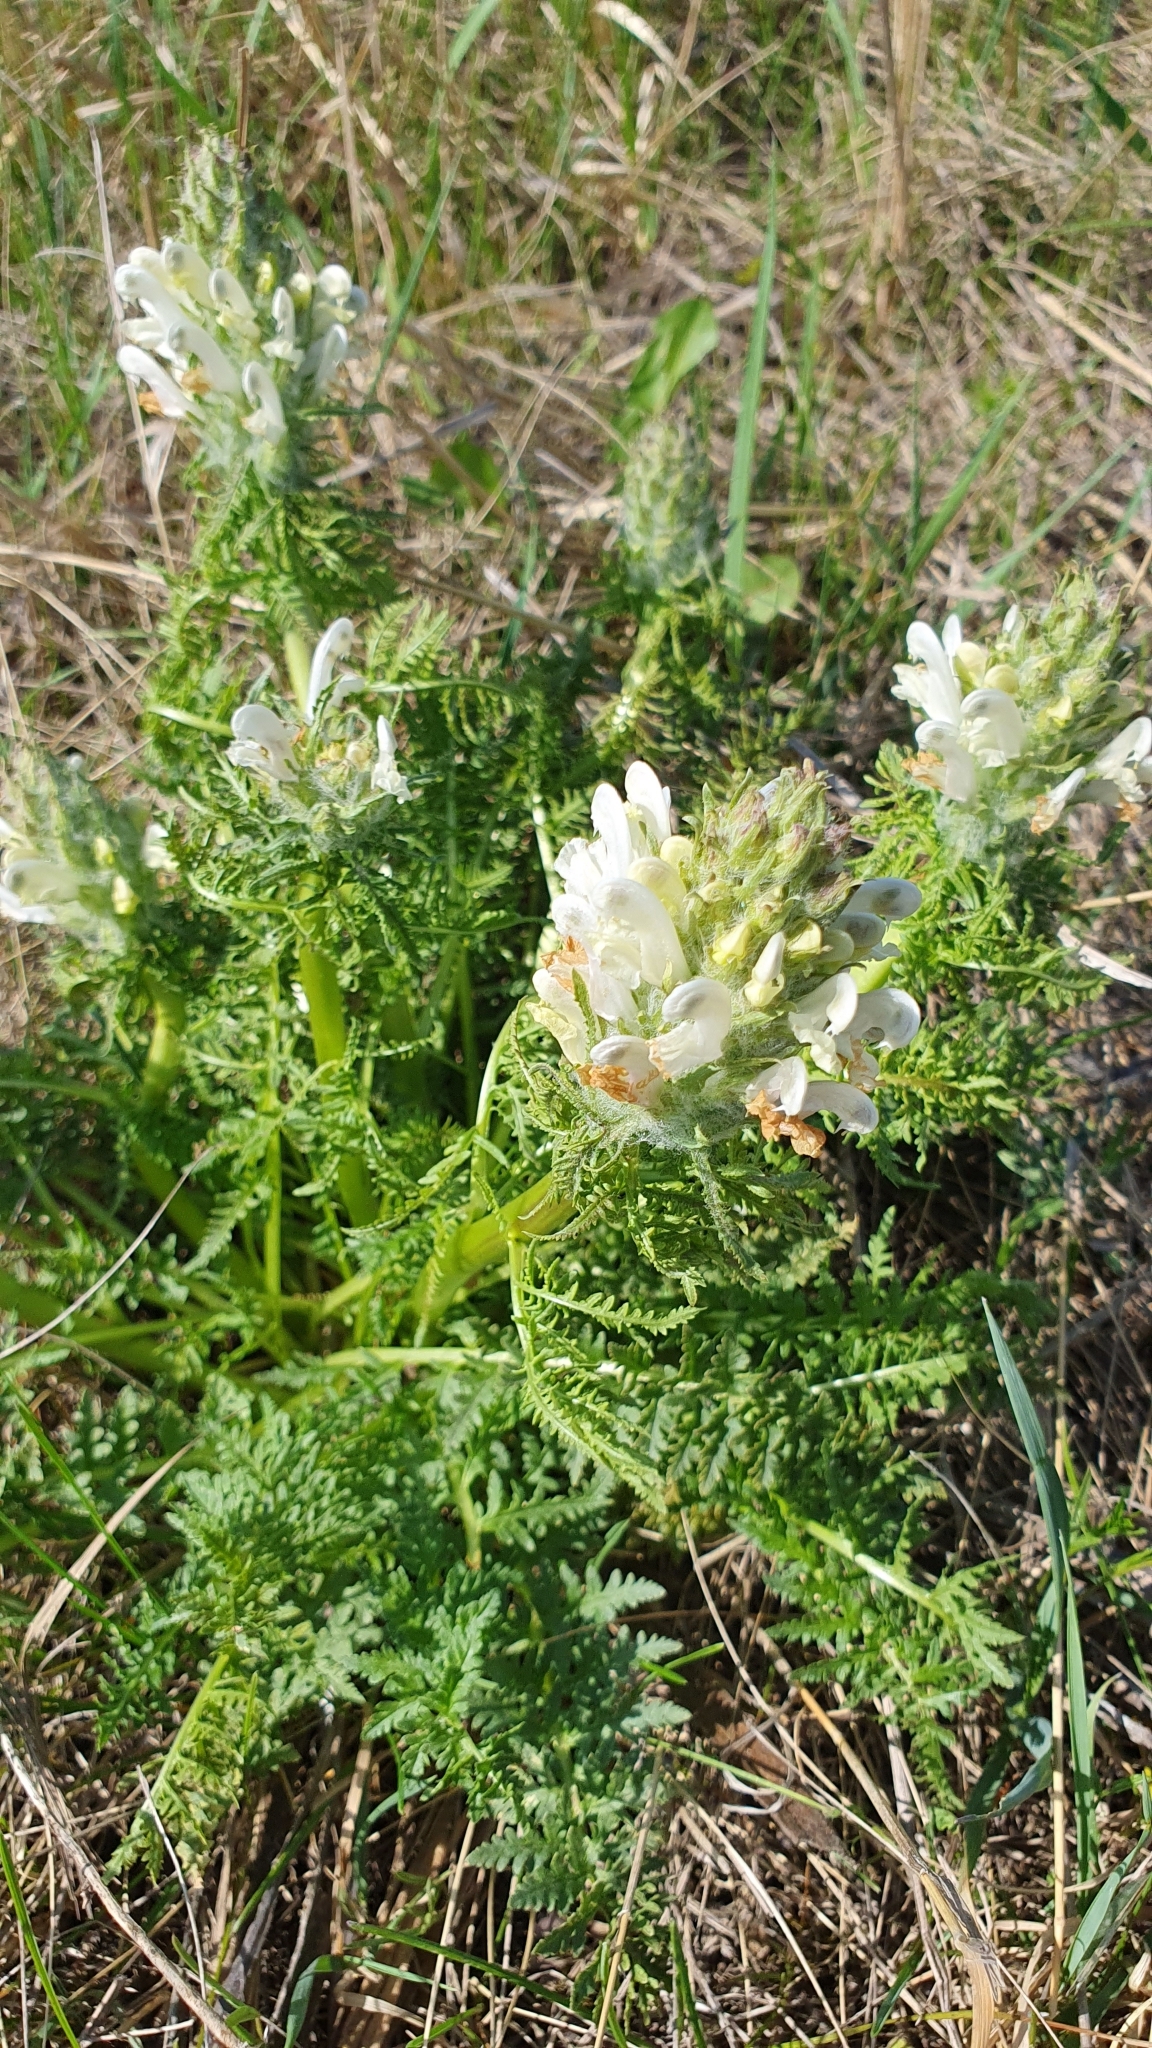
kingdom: Plantae
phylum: Tracheophyta
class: Magnoliopsida
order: Lamiales
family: Orobanchaceae
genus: Pedicularis
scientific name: Pedicularis dasystachys
